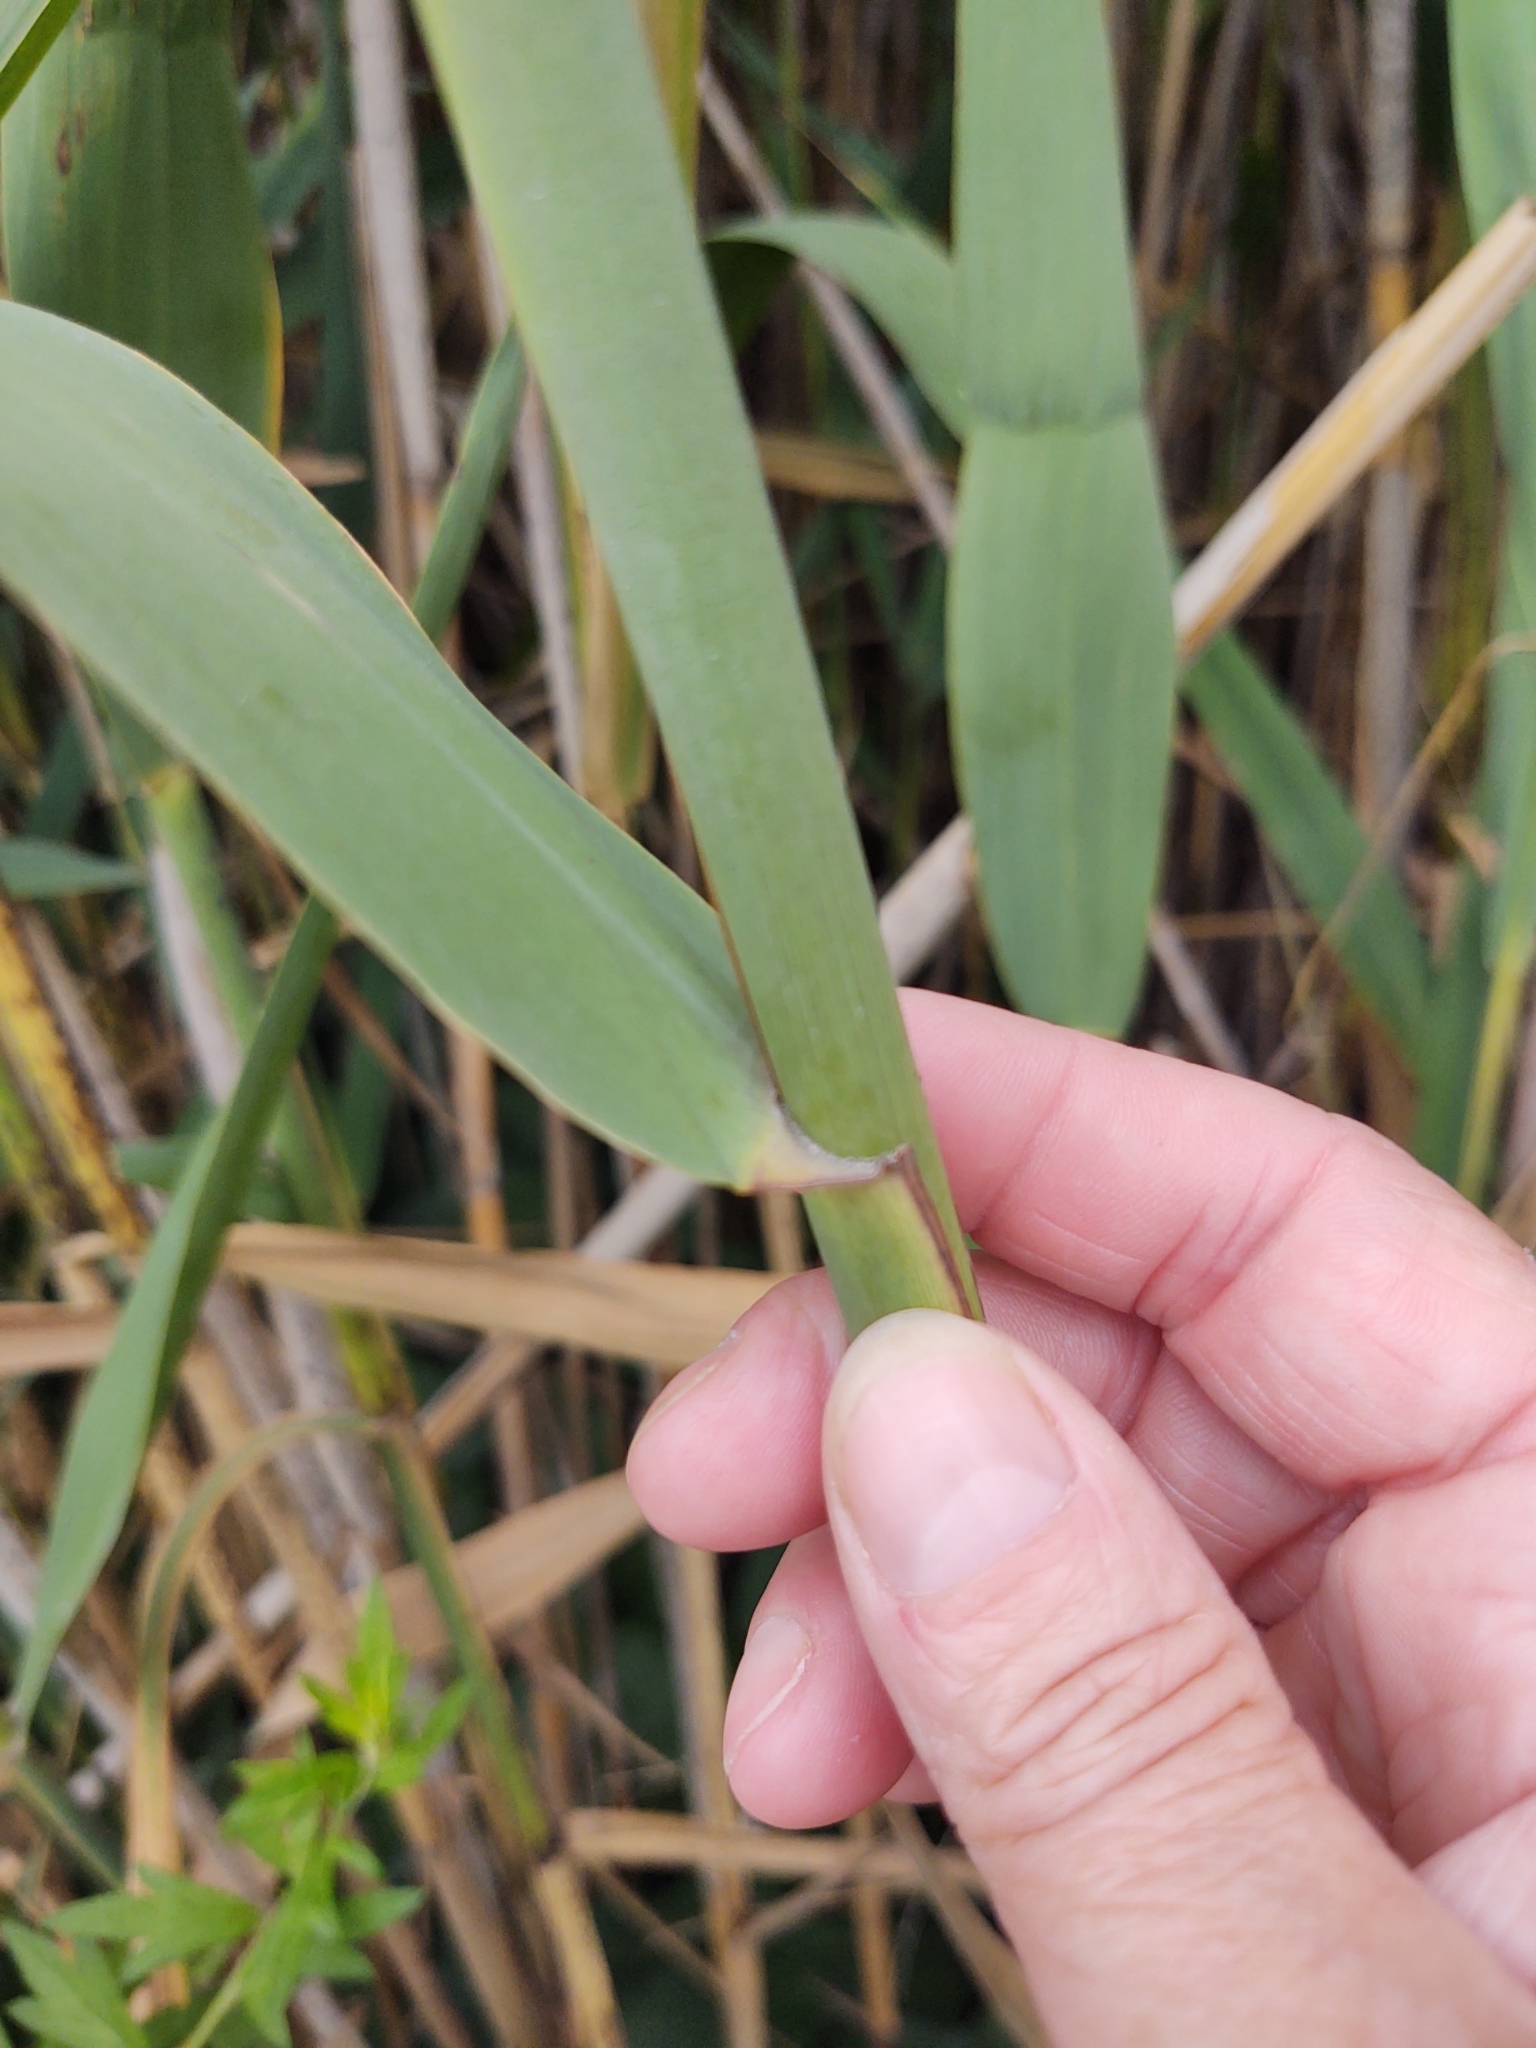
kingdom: Plantae
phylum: Tracheophyta
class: Liliopsida
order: Poales
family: Poaceae
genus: Phragmites
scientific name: Phragmites australis
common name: Common reed
